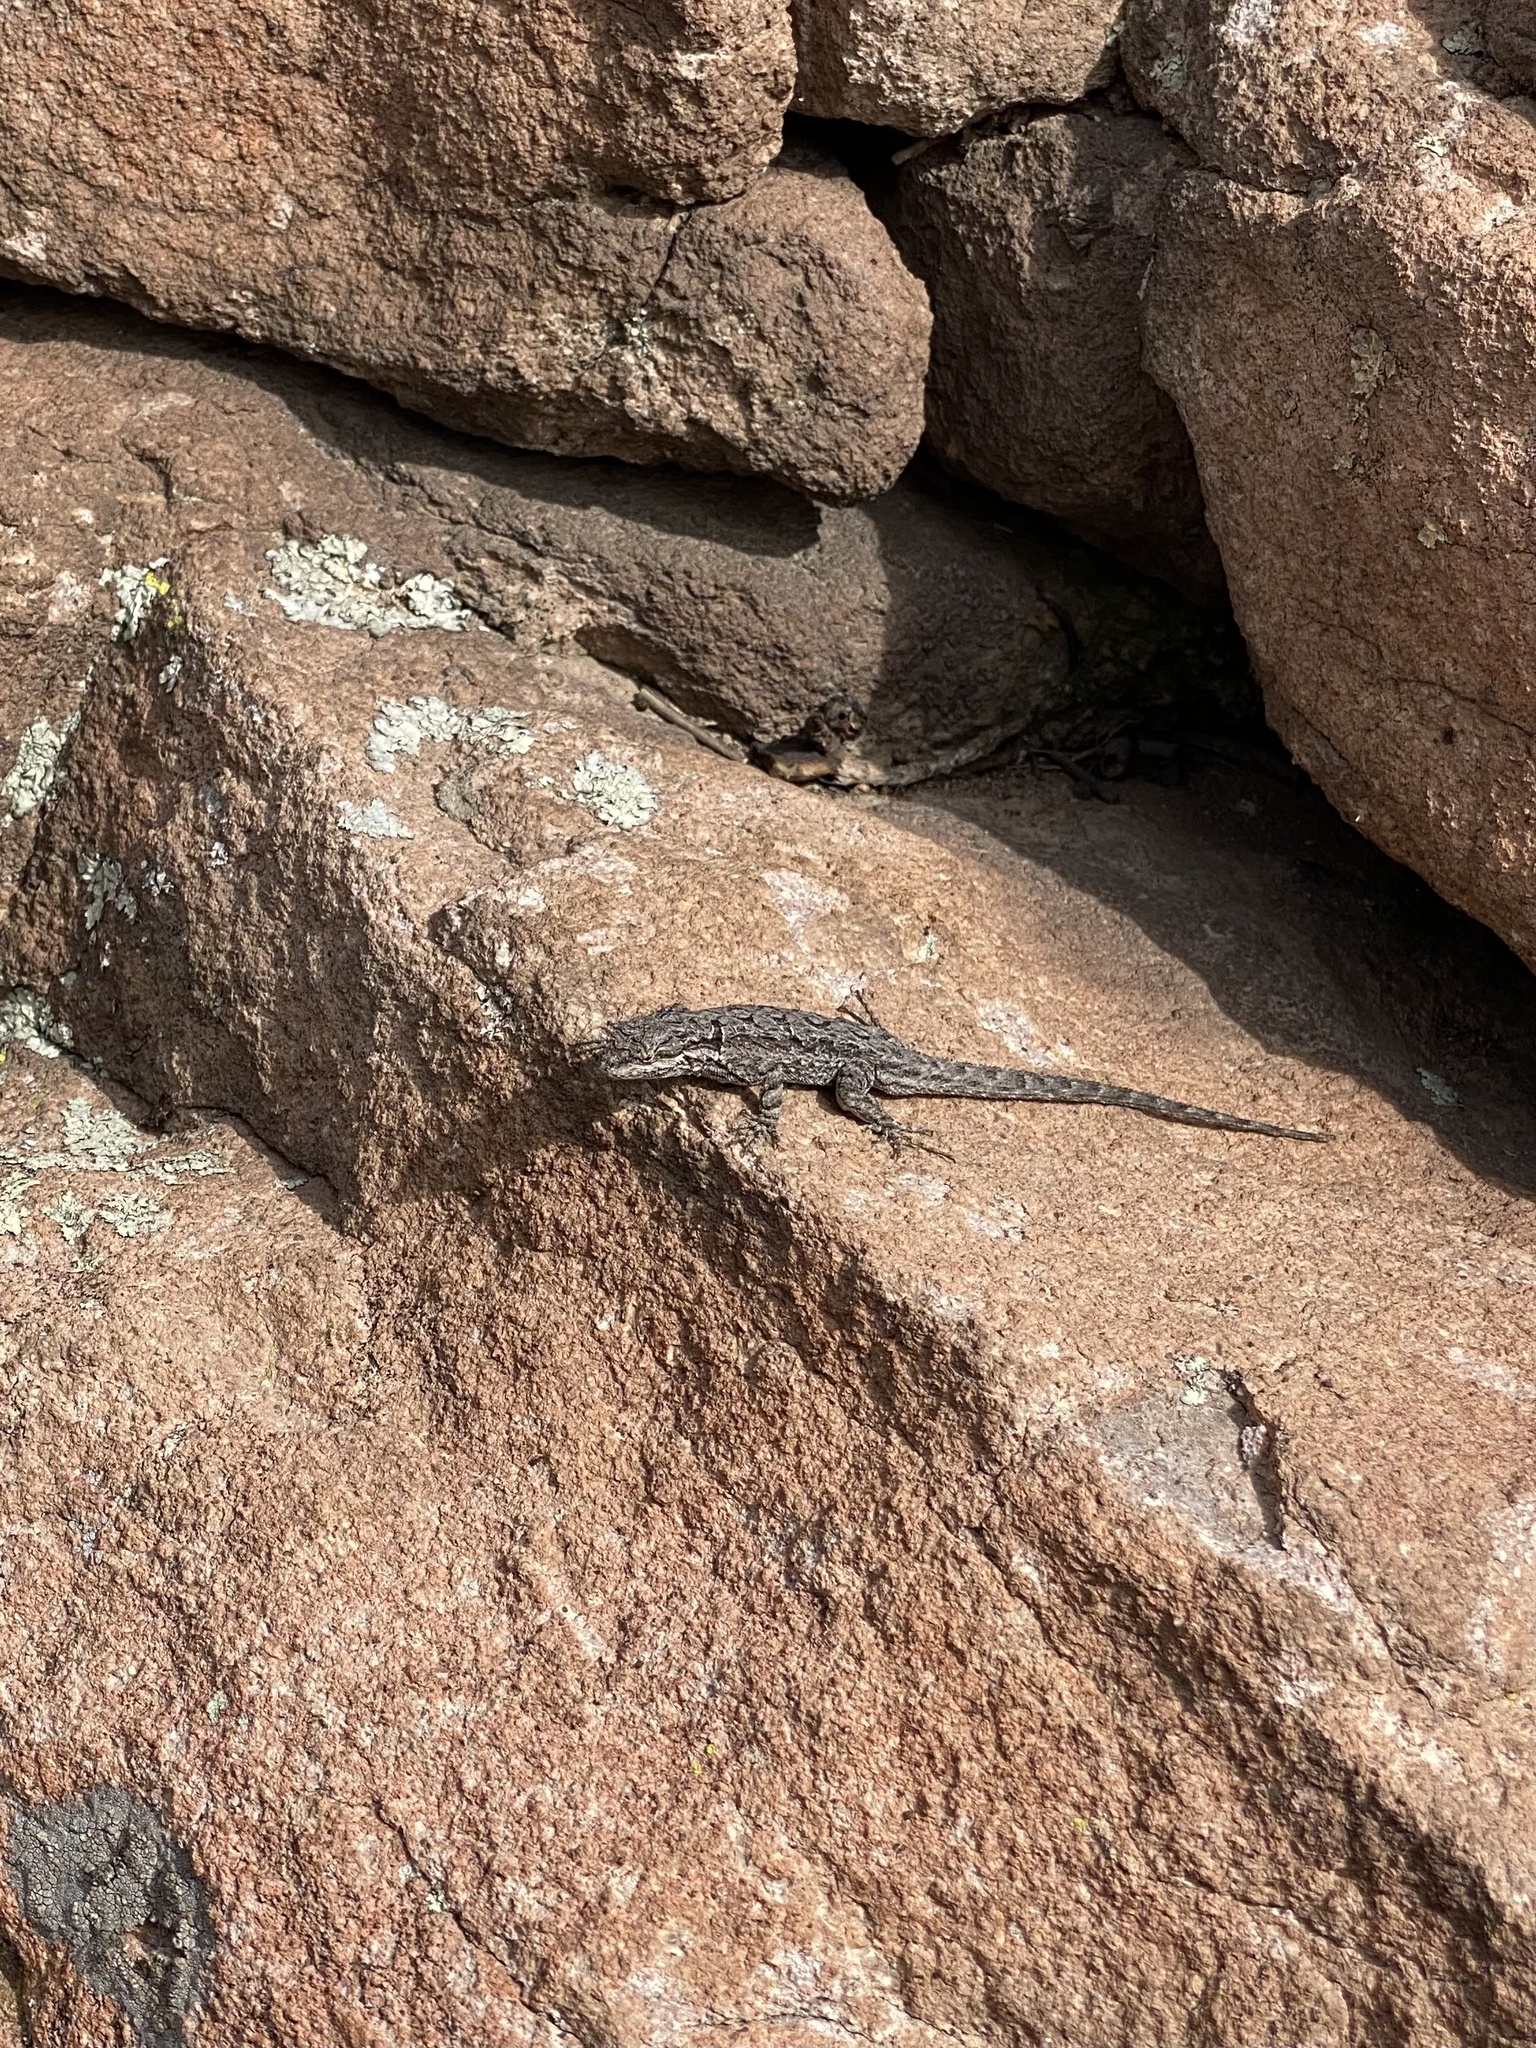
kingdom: Animalia
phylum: Chordata
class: Squamata
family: Phrynosomatidae
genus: Urosaurus
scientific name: Urosaurus ornatus
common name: Ornate tree lizard
